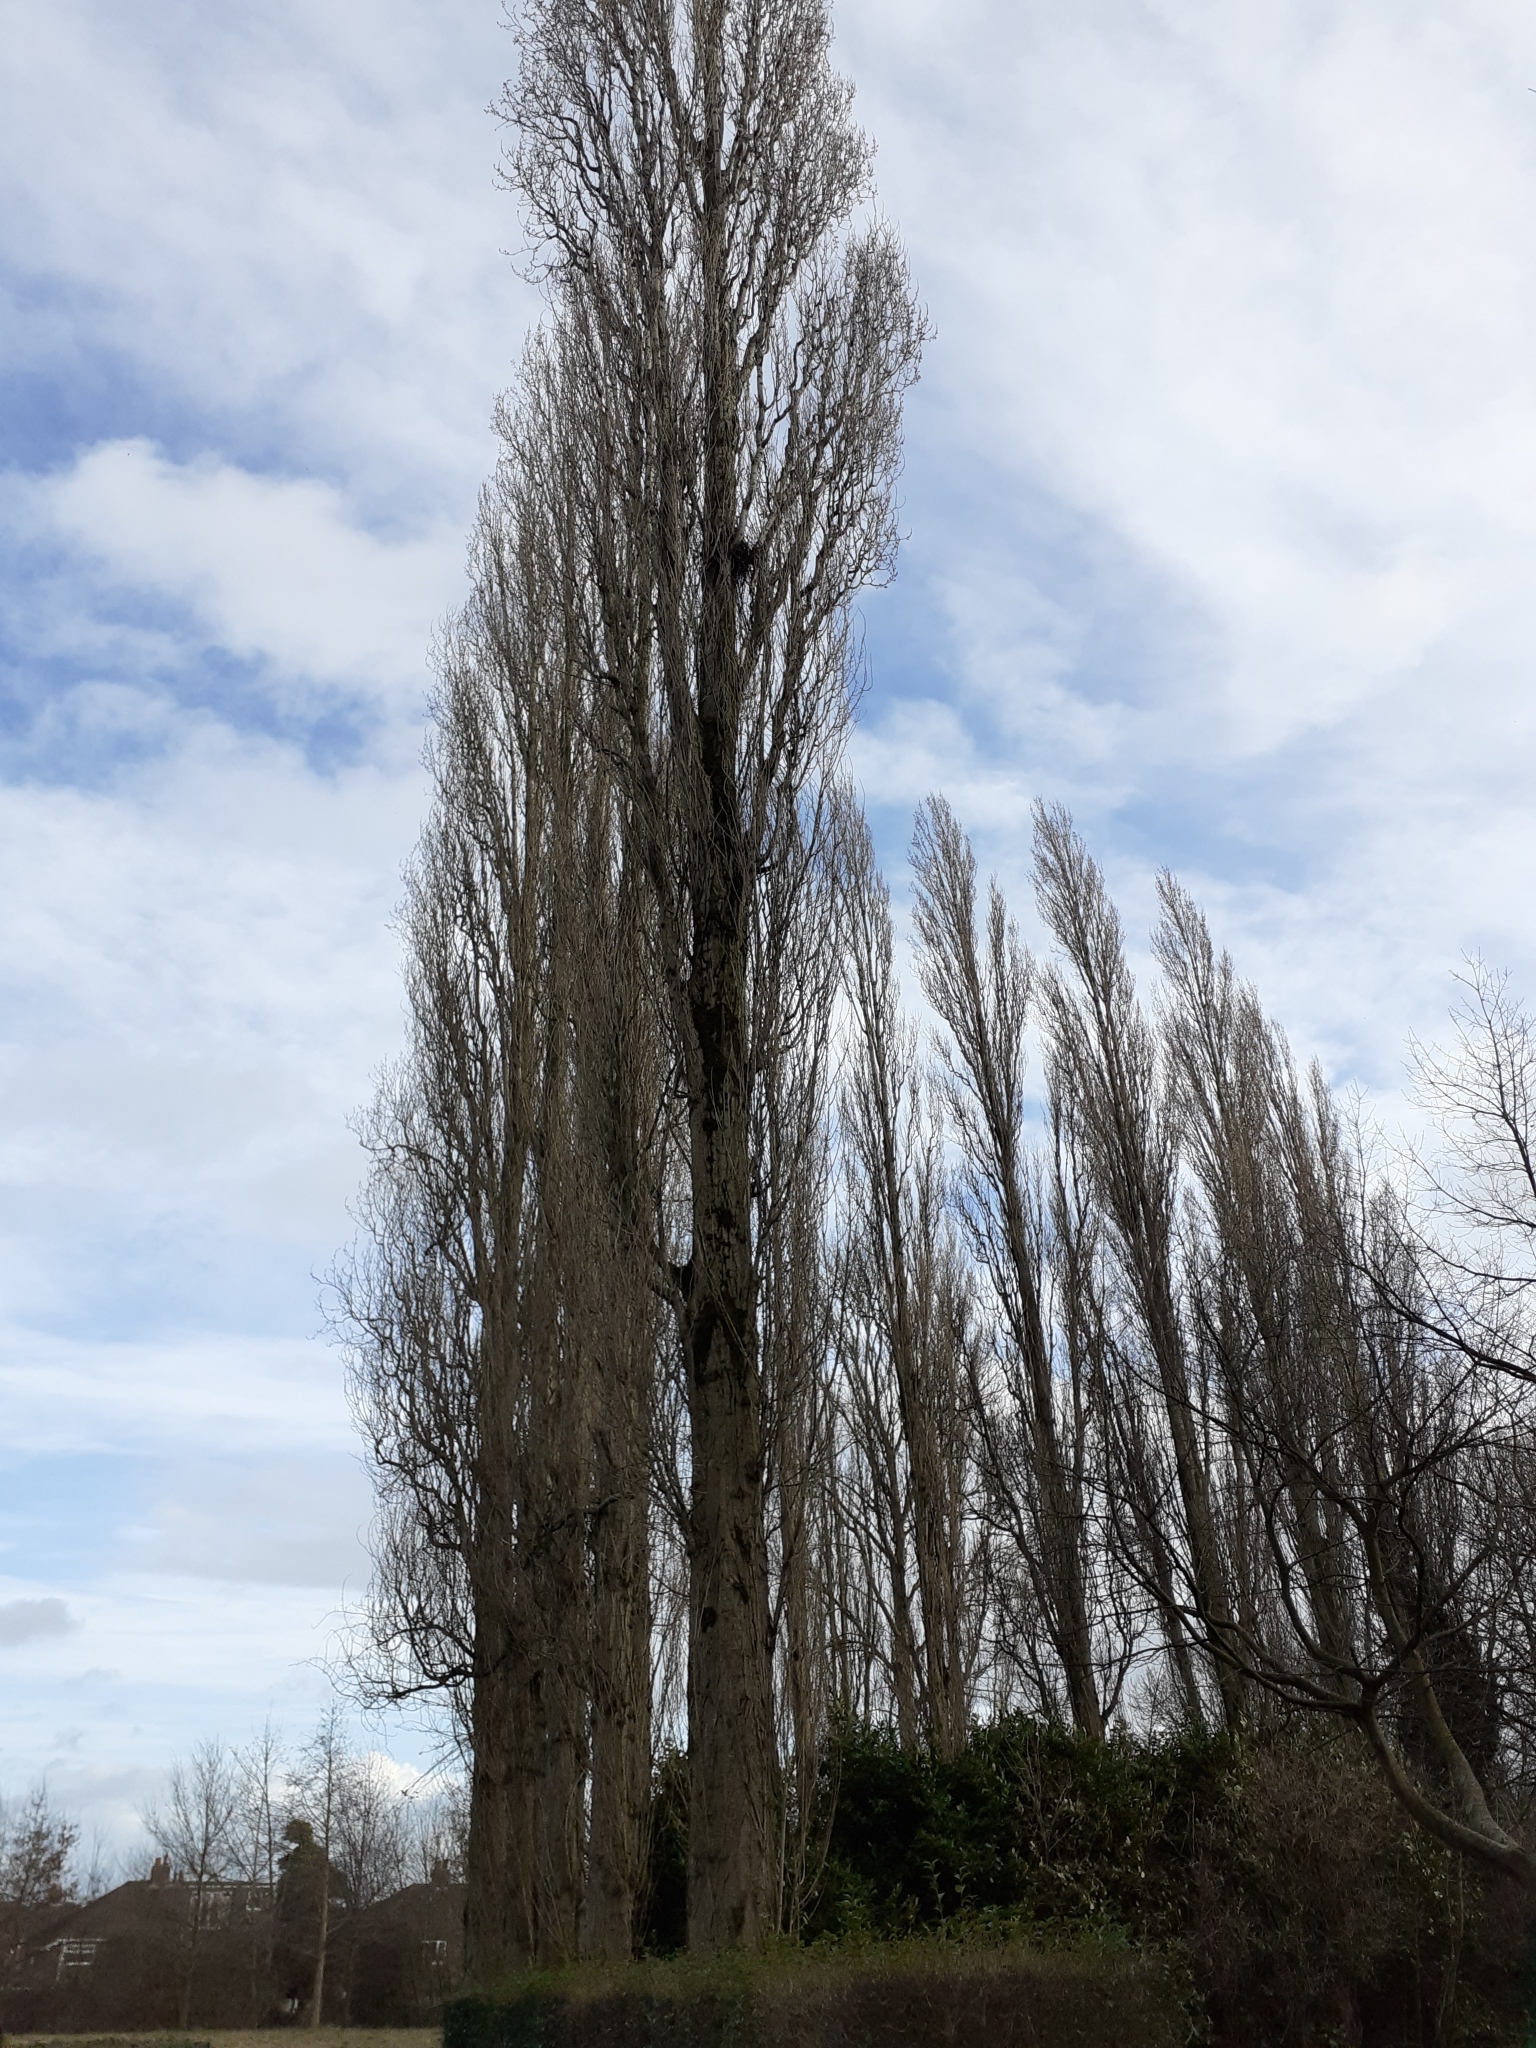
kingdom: Plantae
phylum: Tracheophyta
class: Magnoliopsida
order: Malpighiales
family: Salicaceae
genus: Populus
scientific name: Populus nigra
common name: Black poplar
